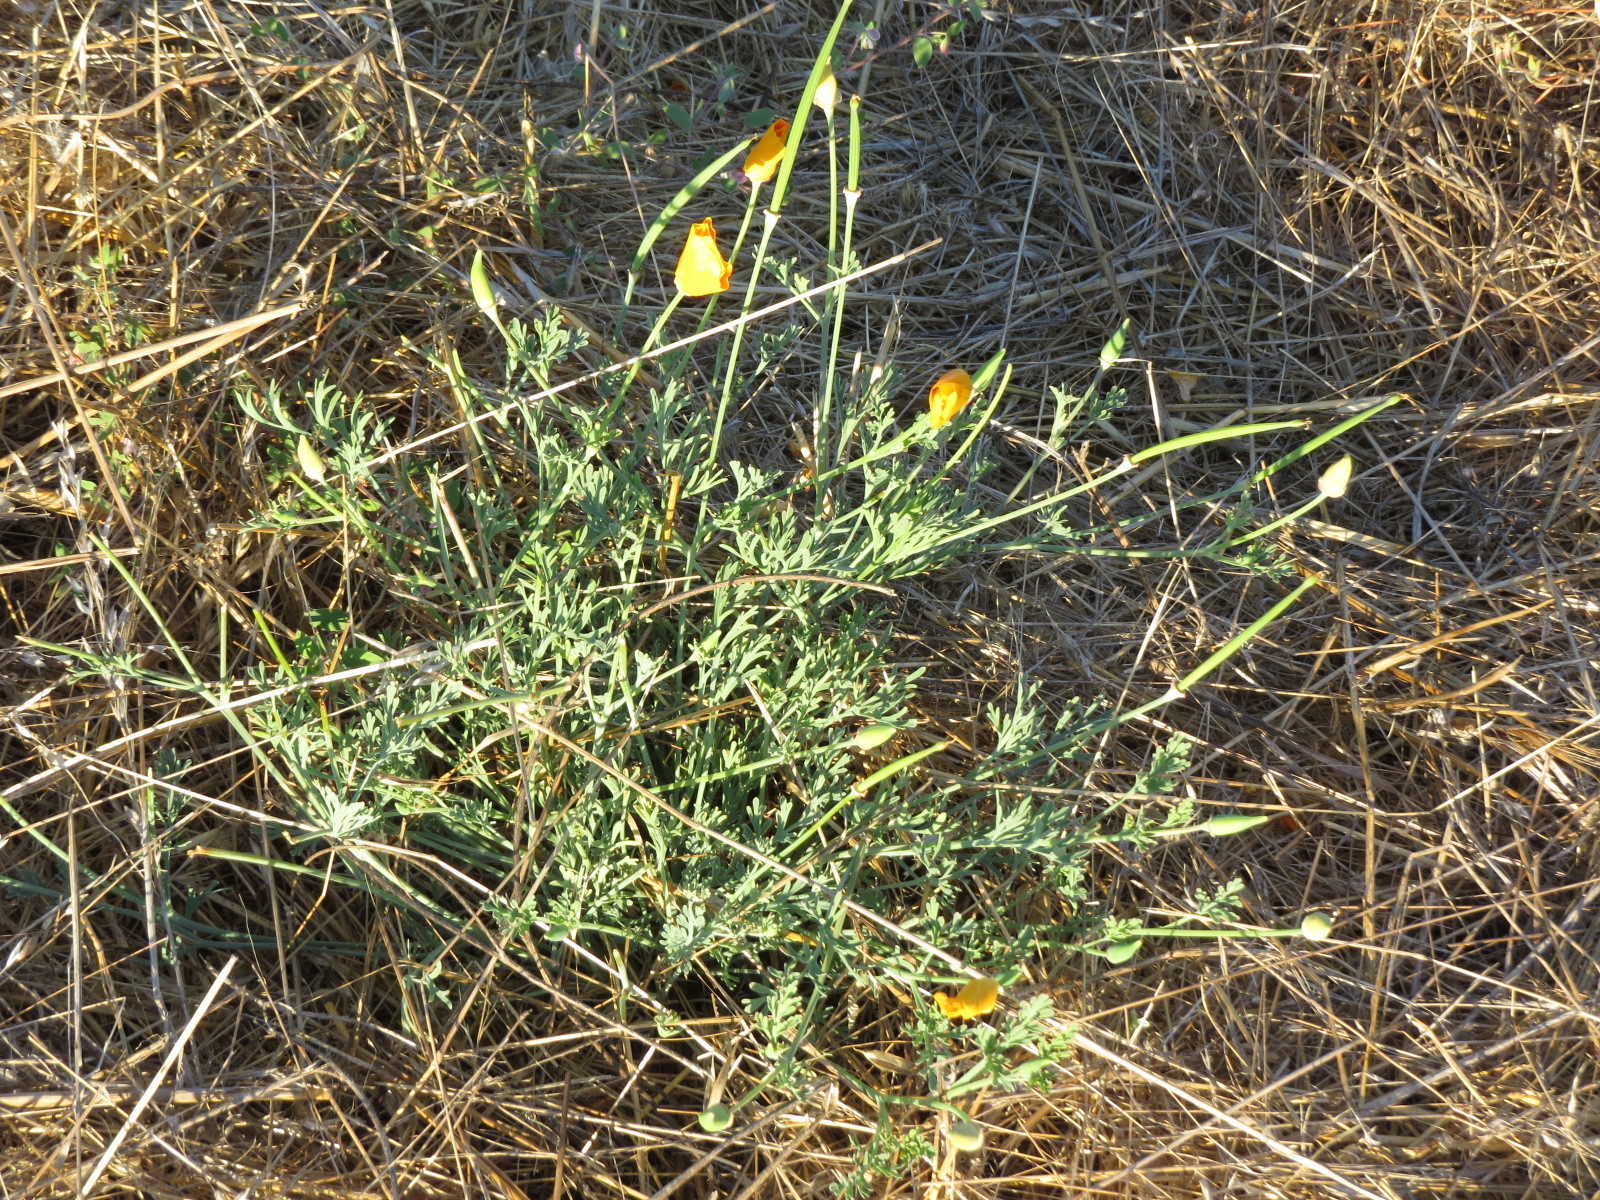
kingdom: Plantae
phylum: Tracheophyta
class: Magnoliopsida
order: Ranunculales
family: Papaveraceae
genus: Eschscholzia
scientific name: Eschscholzia californica
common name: California poppy
